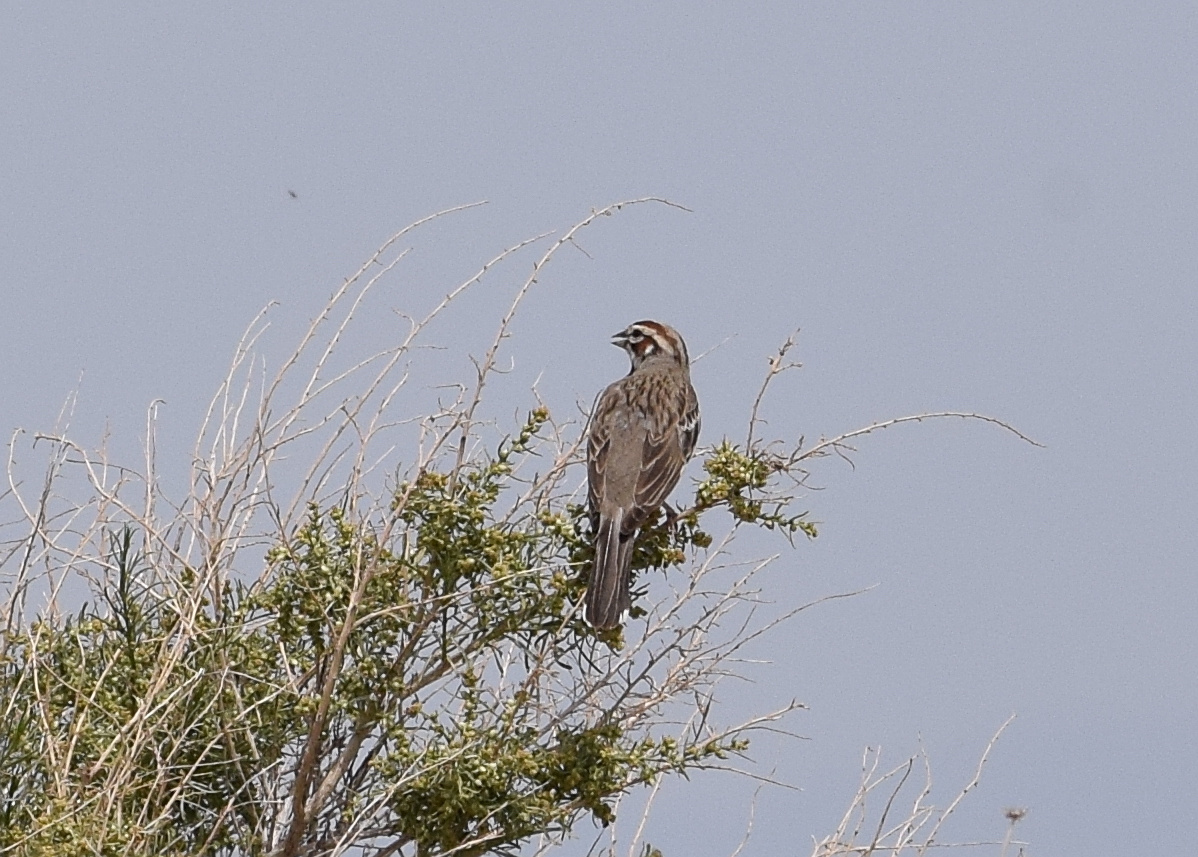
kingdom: Animalia
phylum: Chordata
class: Aves
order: Passeriformes
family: Passerellidae
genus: Chondestes
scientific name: Chondestes grammacus
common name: Lark sparrow
